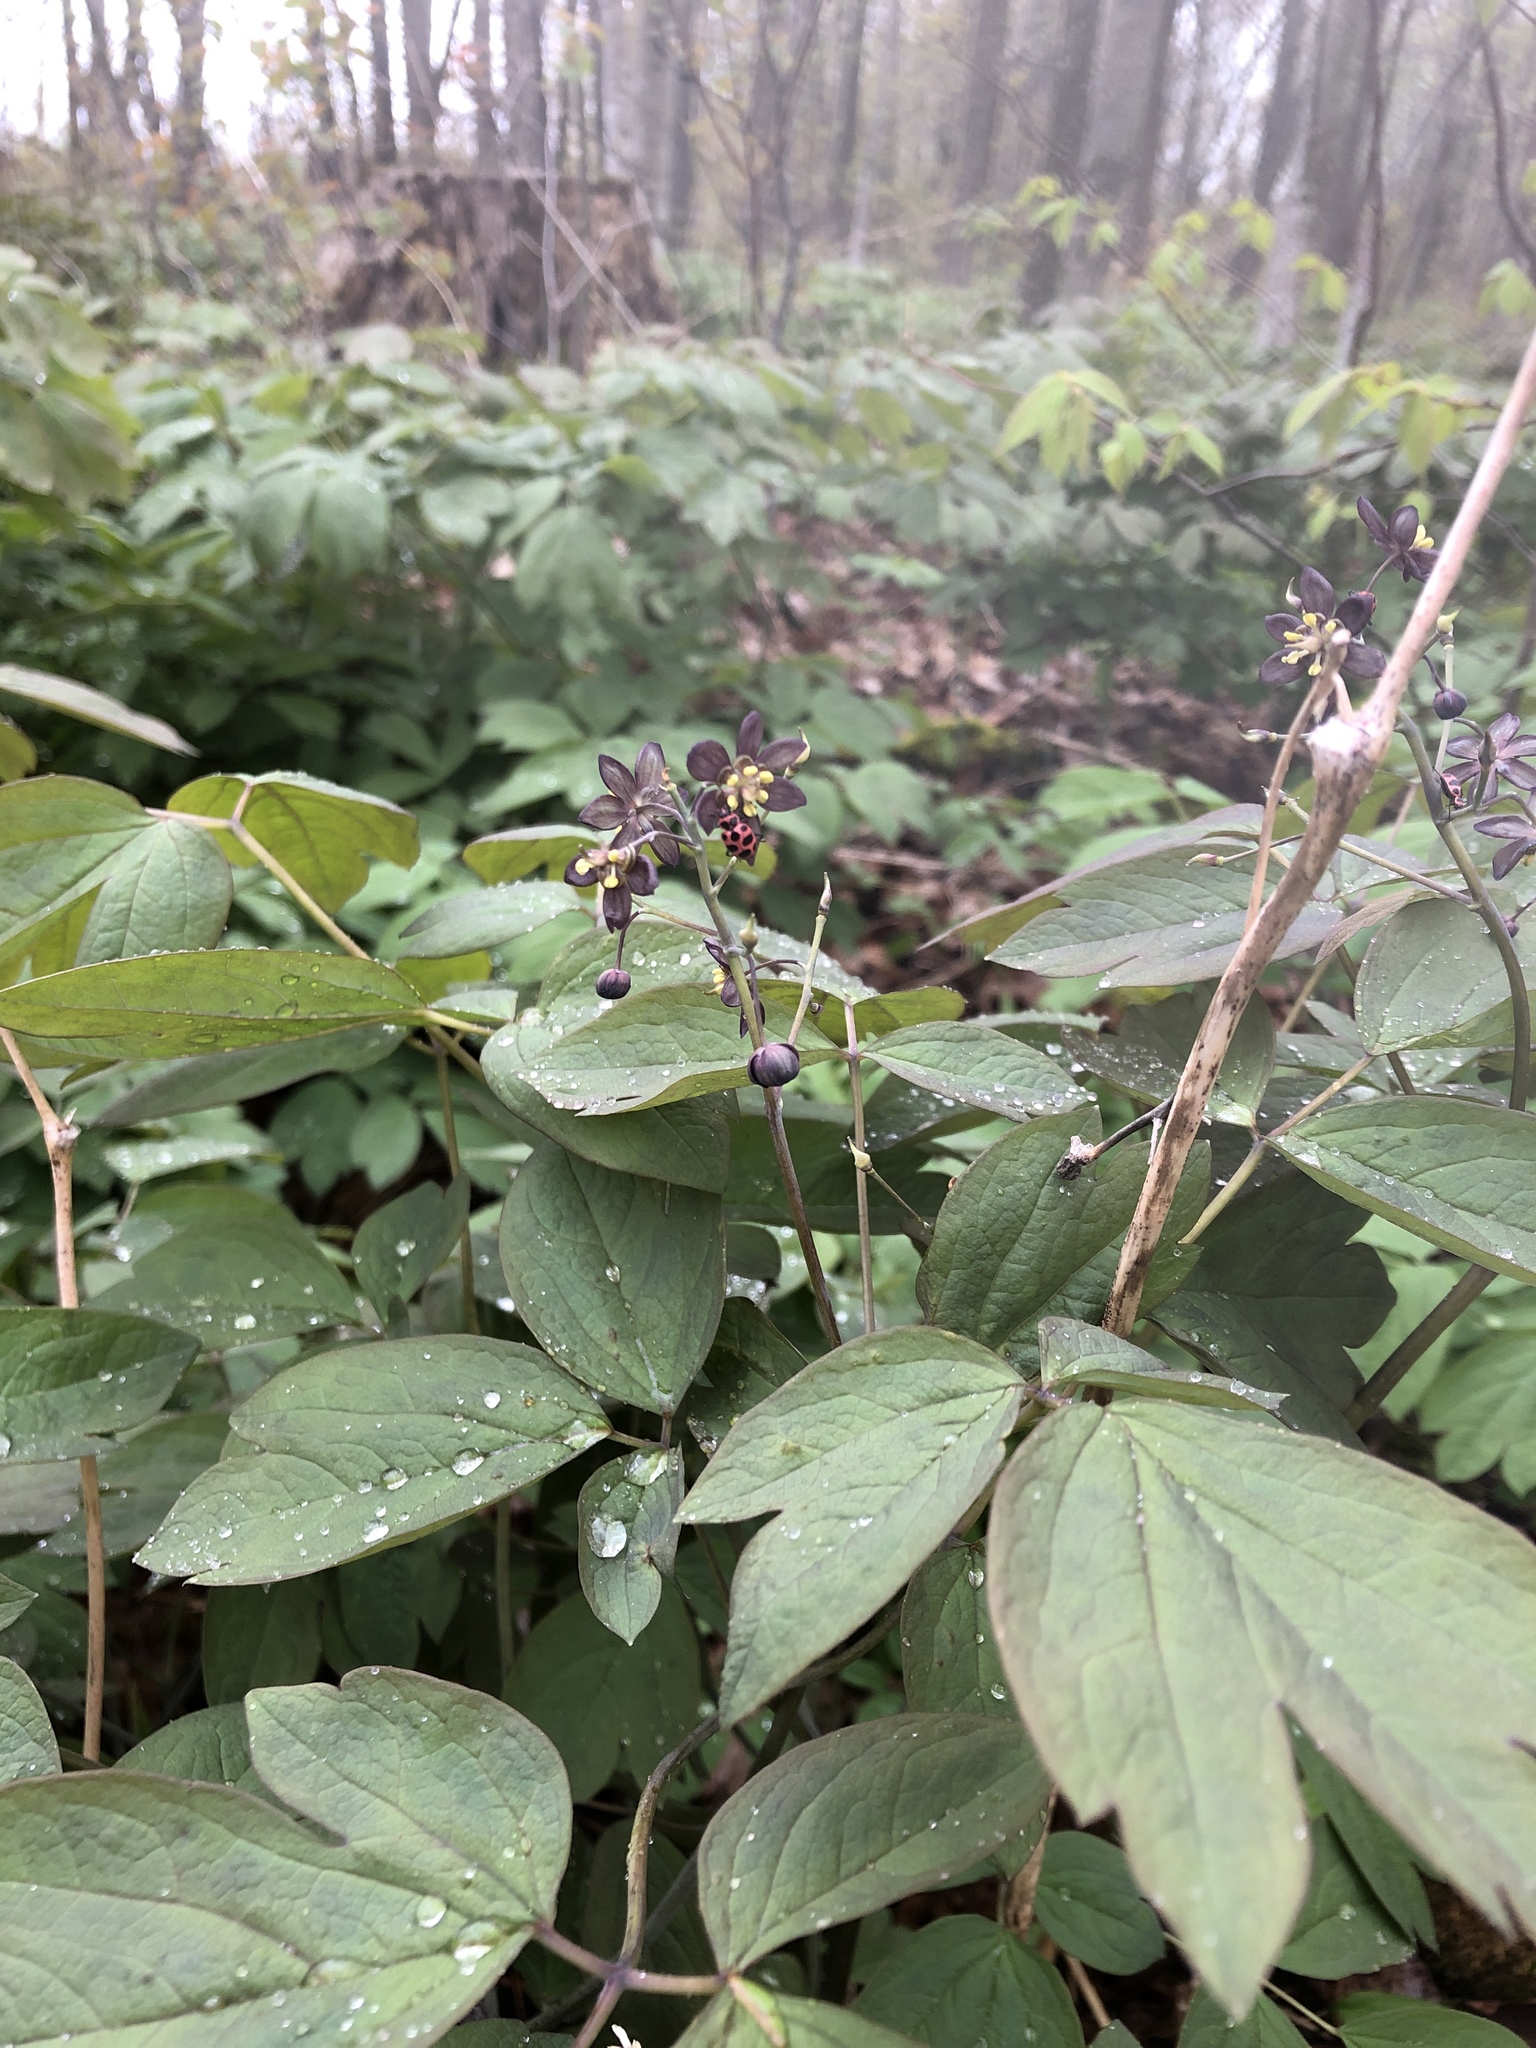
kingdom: Plantae
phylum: Tracheophyta
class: Magnoliopsida
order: Ranunculales
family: Berberidaceae
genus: Caulophyllum
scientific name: Caulophyllum giganteum
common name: Blue cohosh
